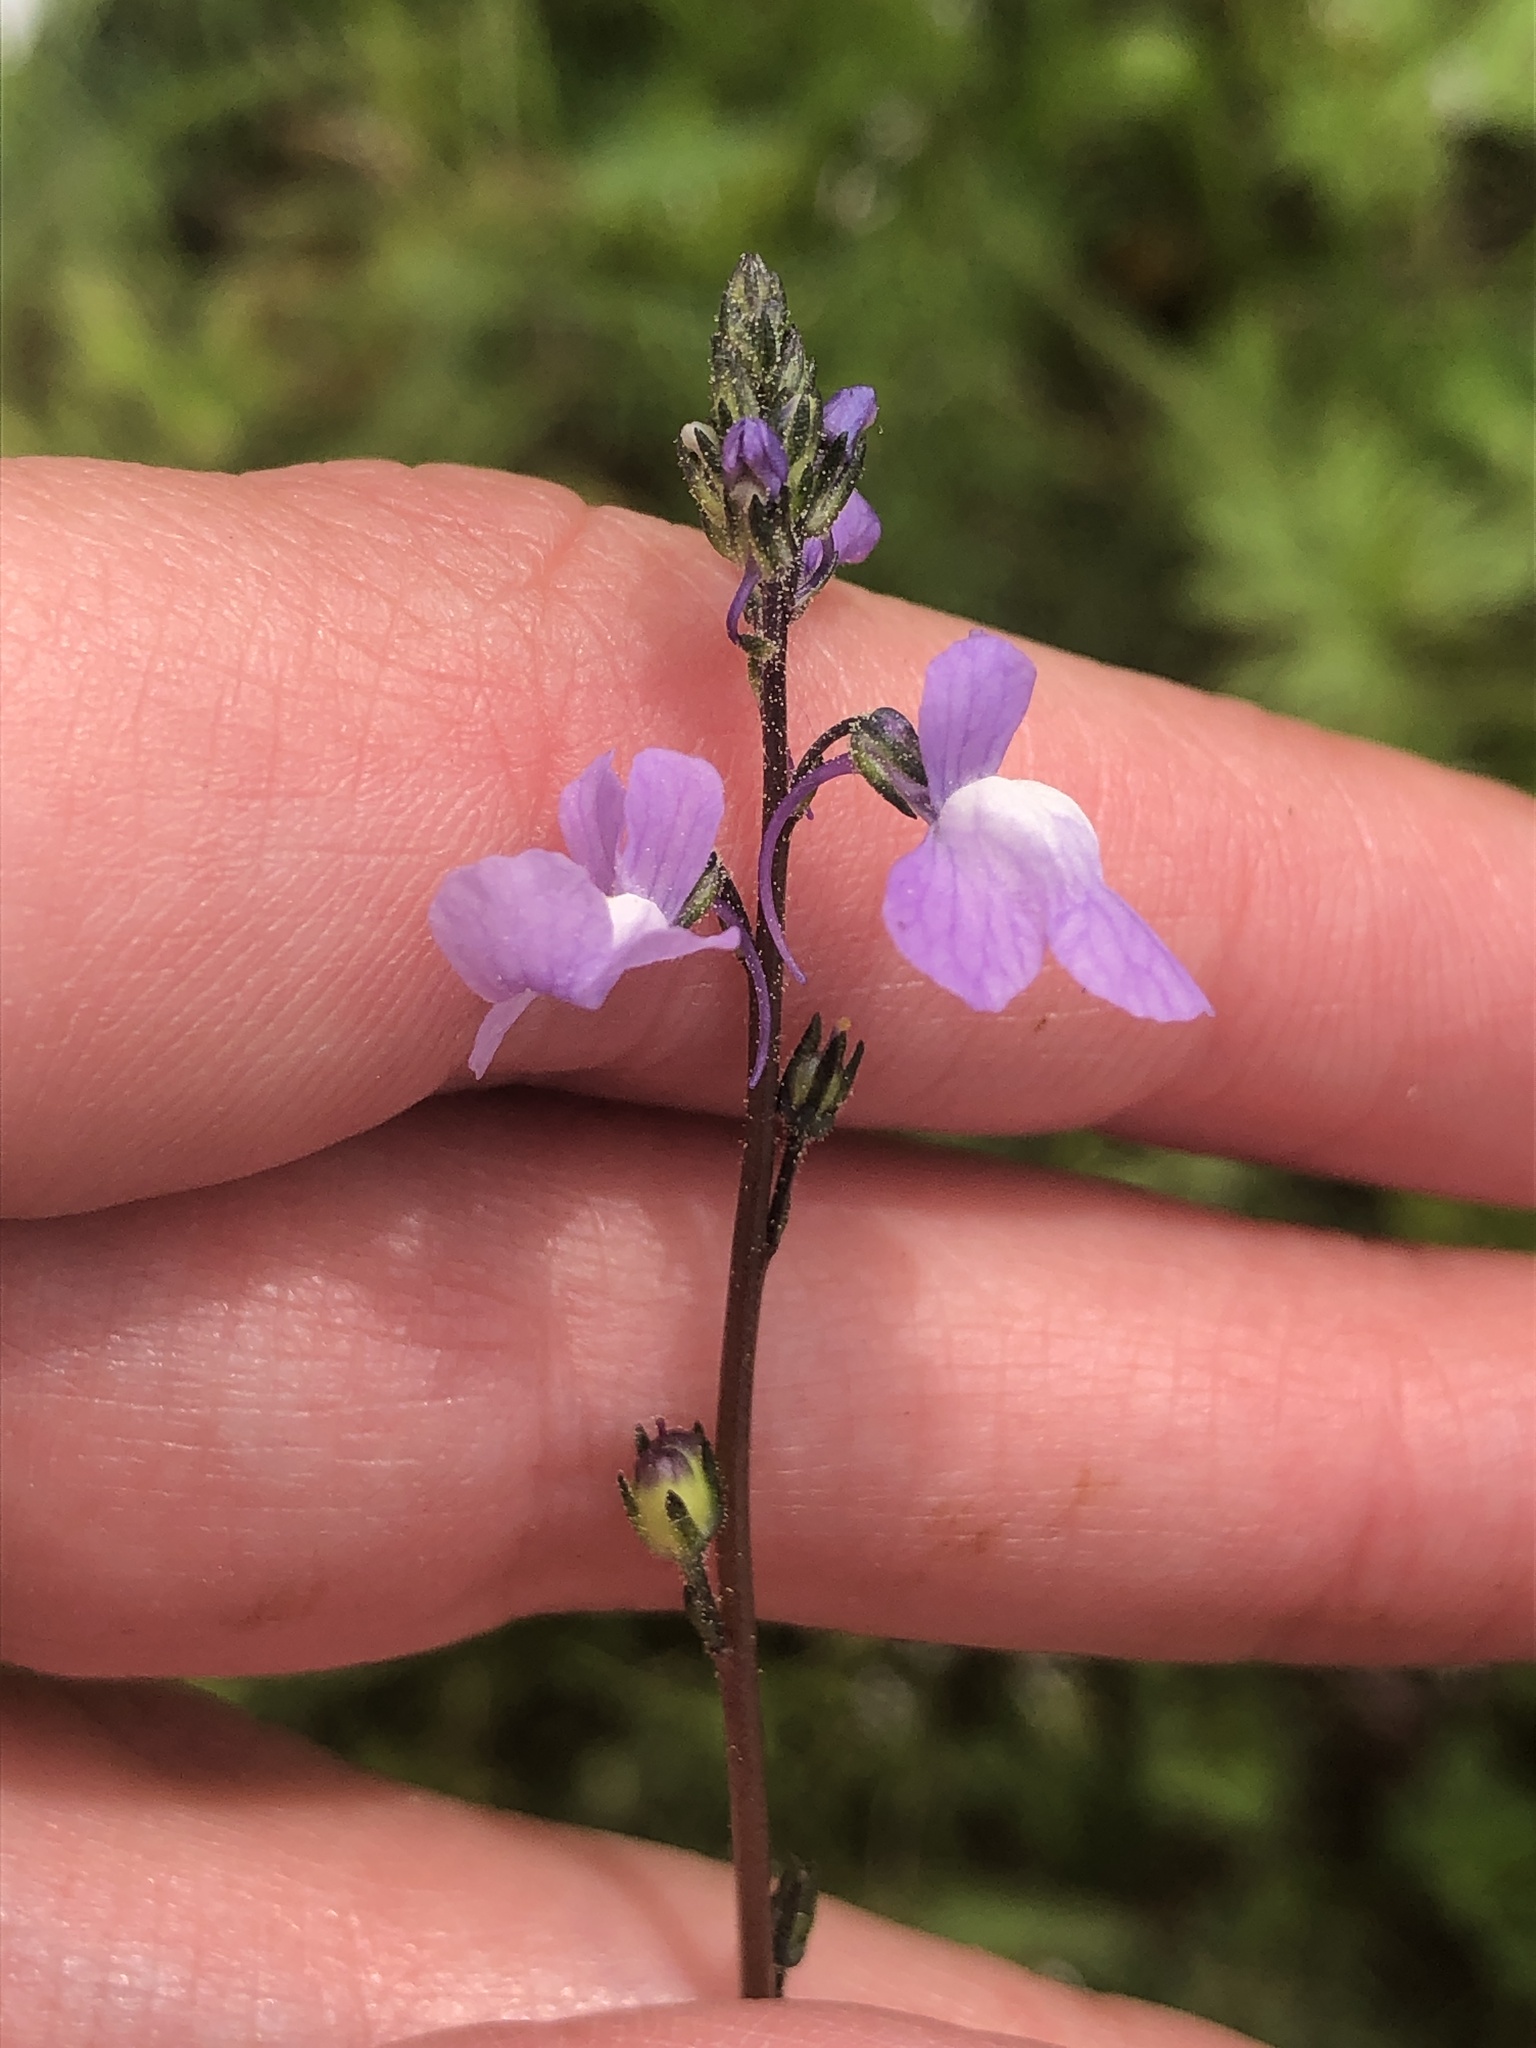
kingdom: Plantae
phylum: Tracheophyta
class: Magnoliopsida
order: Lamiales
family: Plantaginaceae
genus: Nuttallanthus
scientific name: Nuttallanthus canadensis
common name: Blue toadflax
